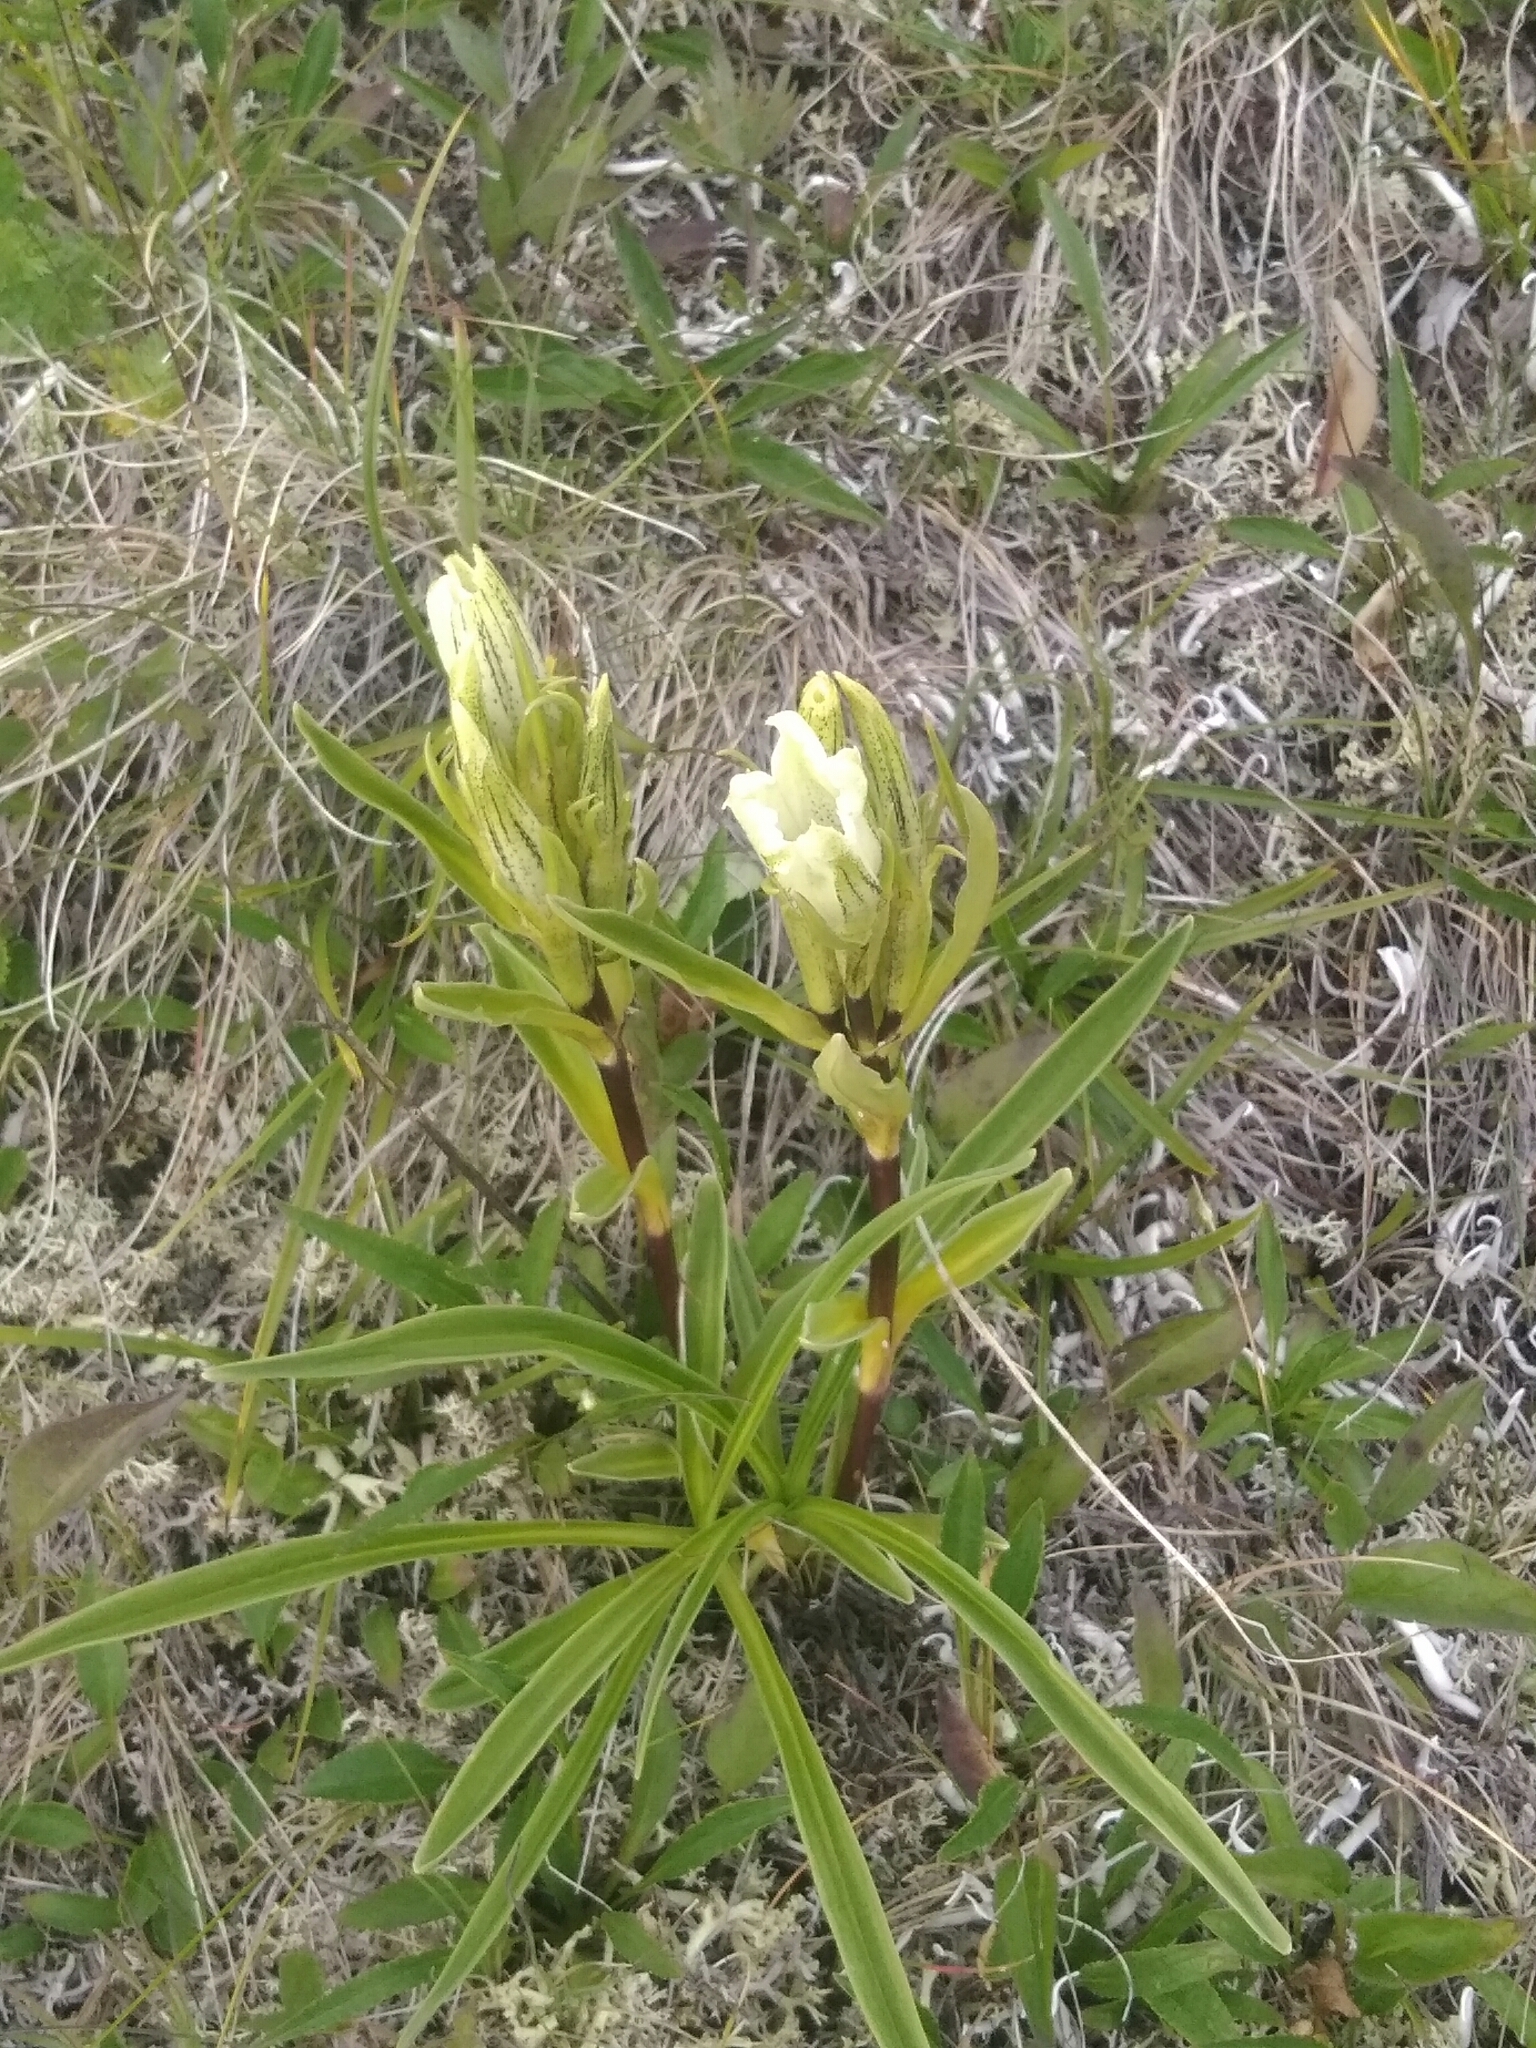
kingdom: Plantae
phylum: Tracheophyta
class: Magnoliopsida
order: Gentianales
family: Gentianaceae
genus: Gentiana
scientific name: Gentiana algida
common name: Arctic gentian
